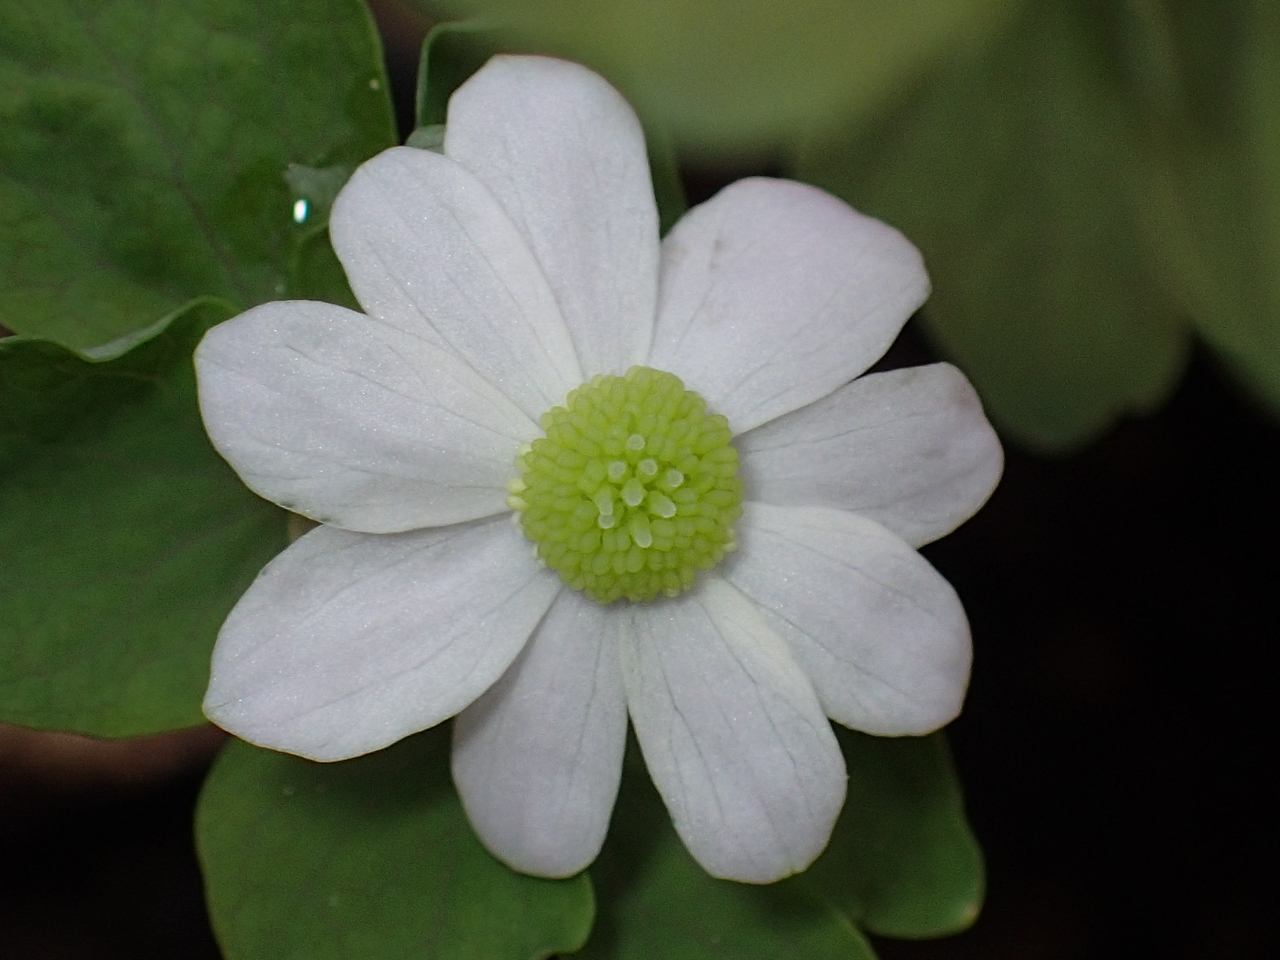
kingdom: Plantae
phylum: Tracheophyta
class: Magnoliopsida
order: Ranunculales
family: Ranunculaceae
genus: Thalictrum
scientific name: Thalictrum thalictroides
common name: Rue-anemone
